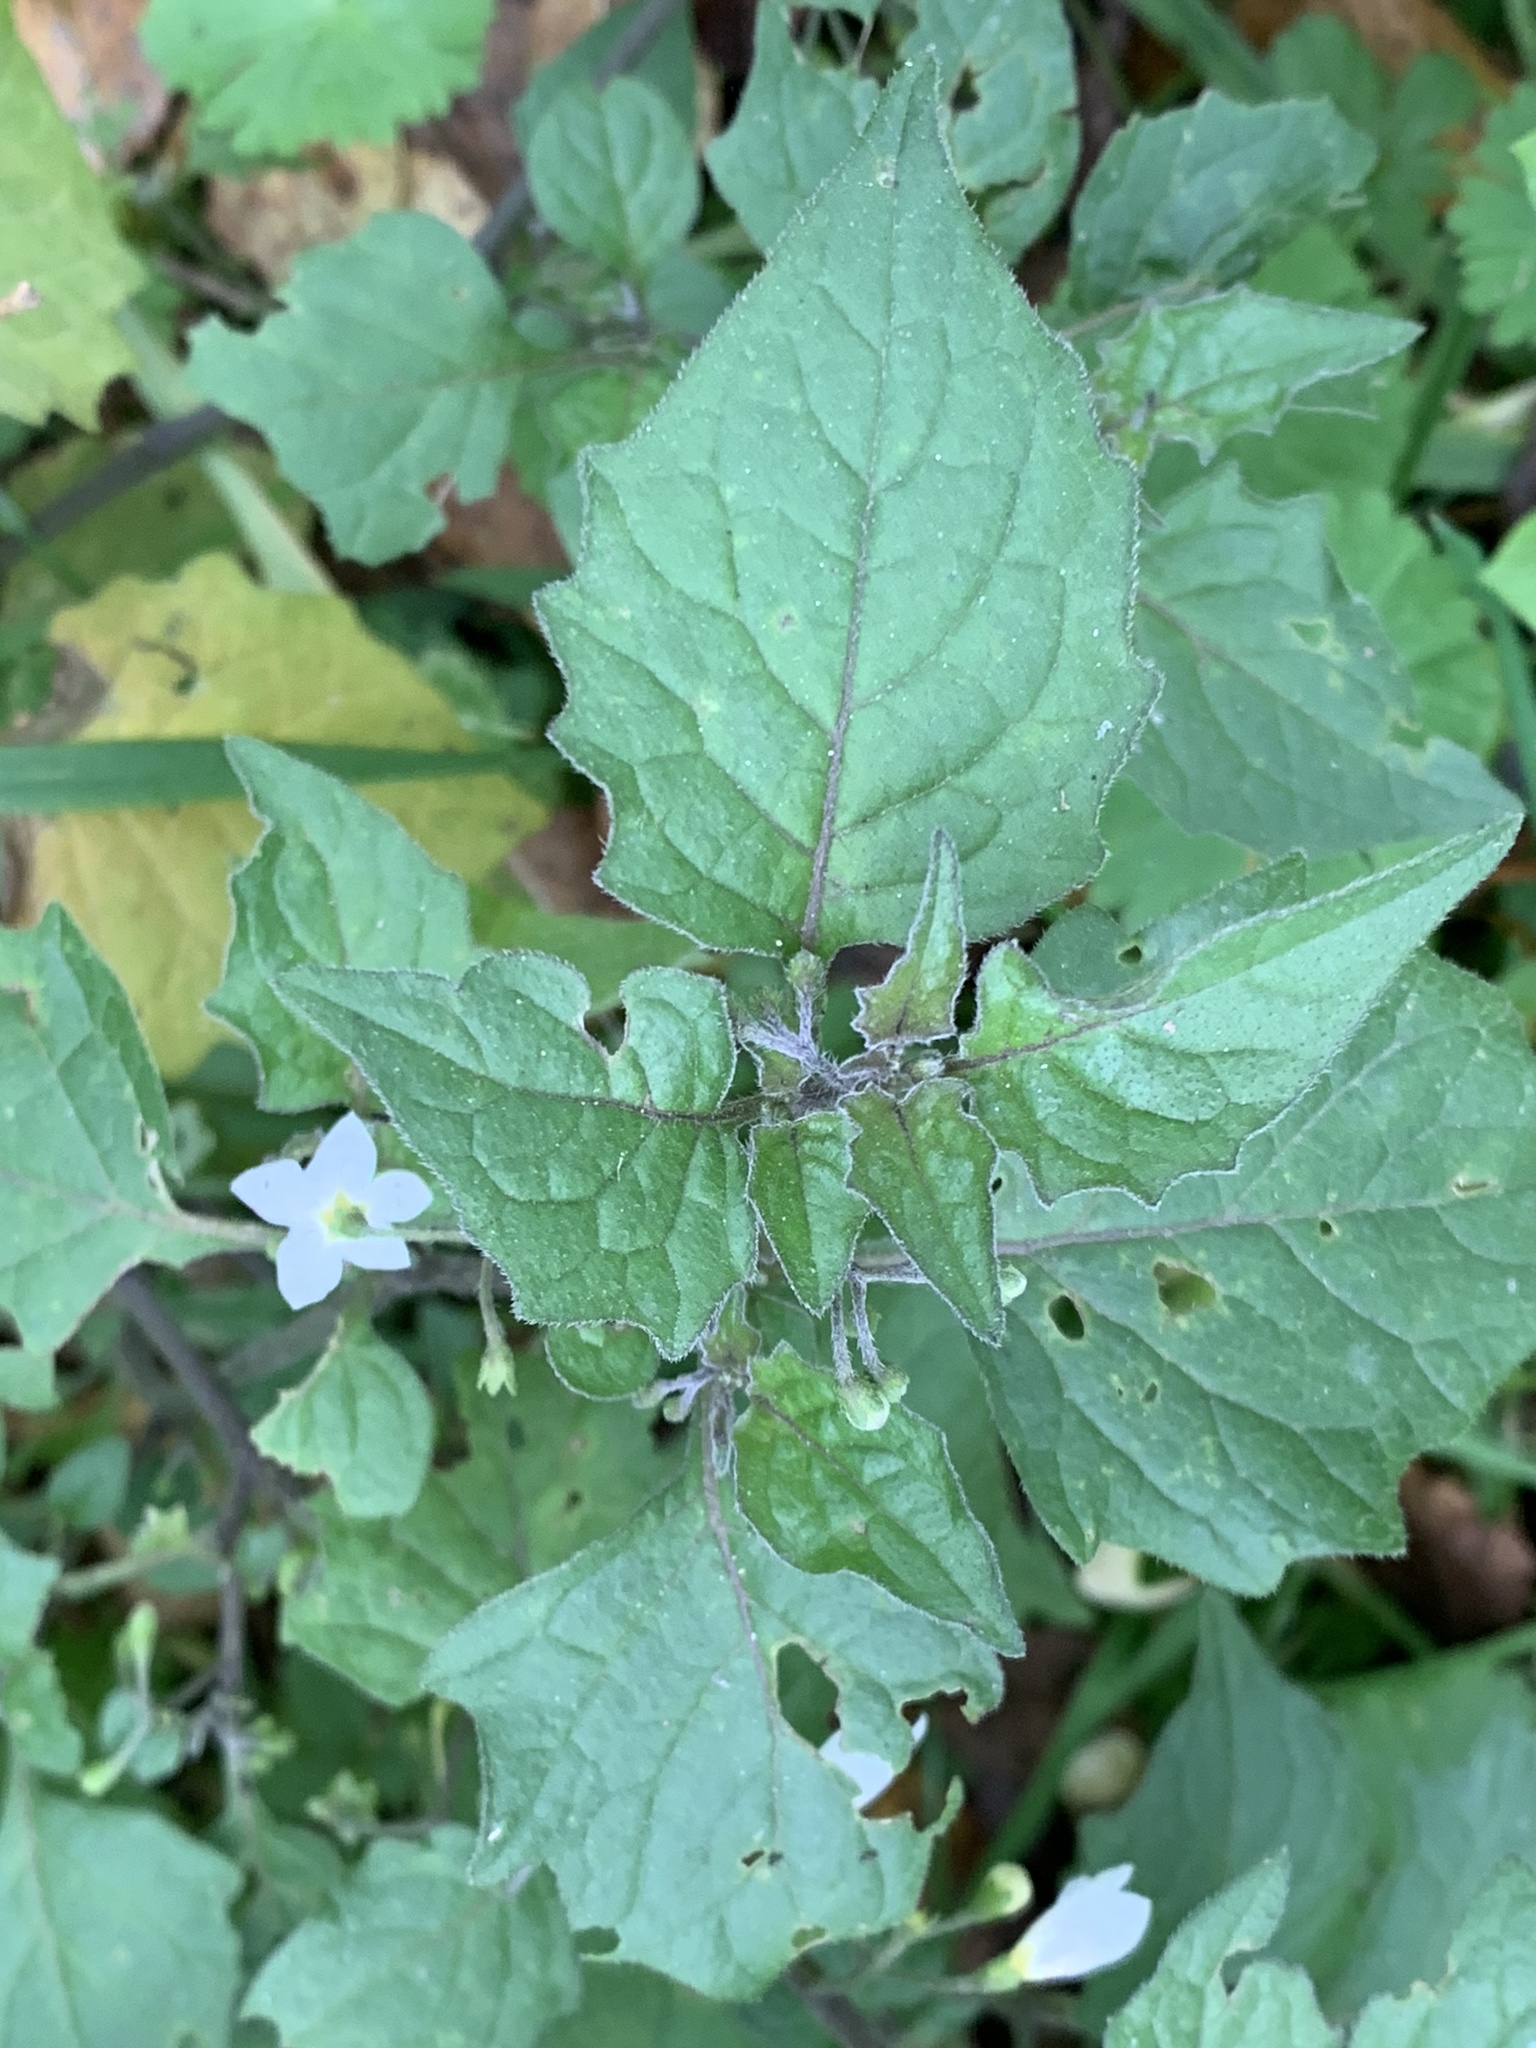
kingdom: Plantae
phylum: Tracheophyta
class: Magnoliopsida
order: Solanales
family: Solanaceae
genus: Solanum
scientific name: Solanum nigrum
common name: Black nightshade
